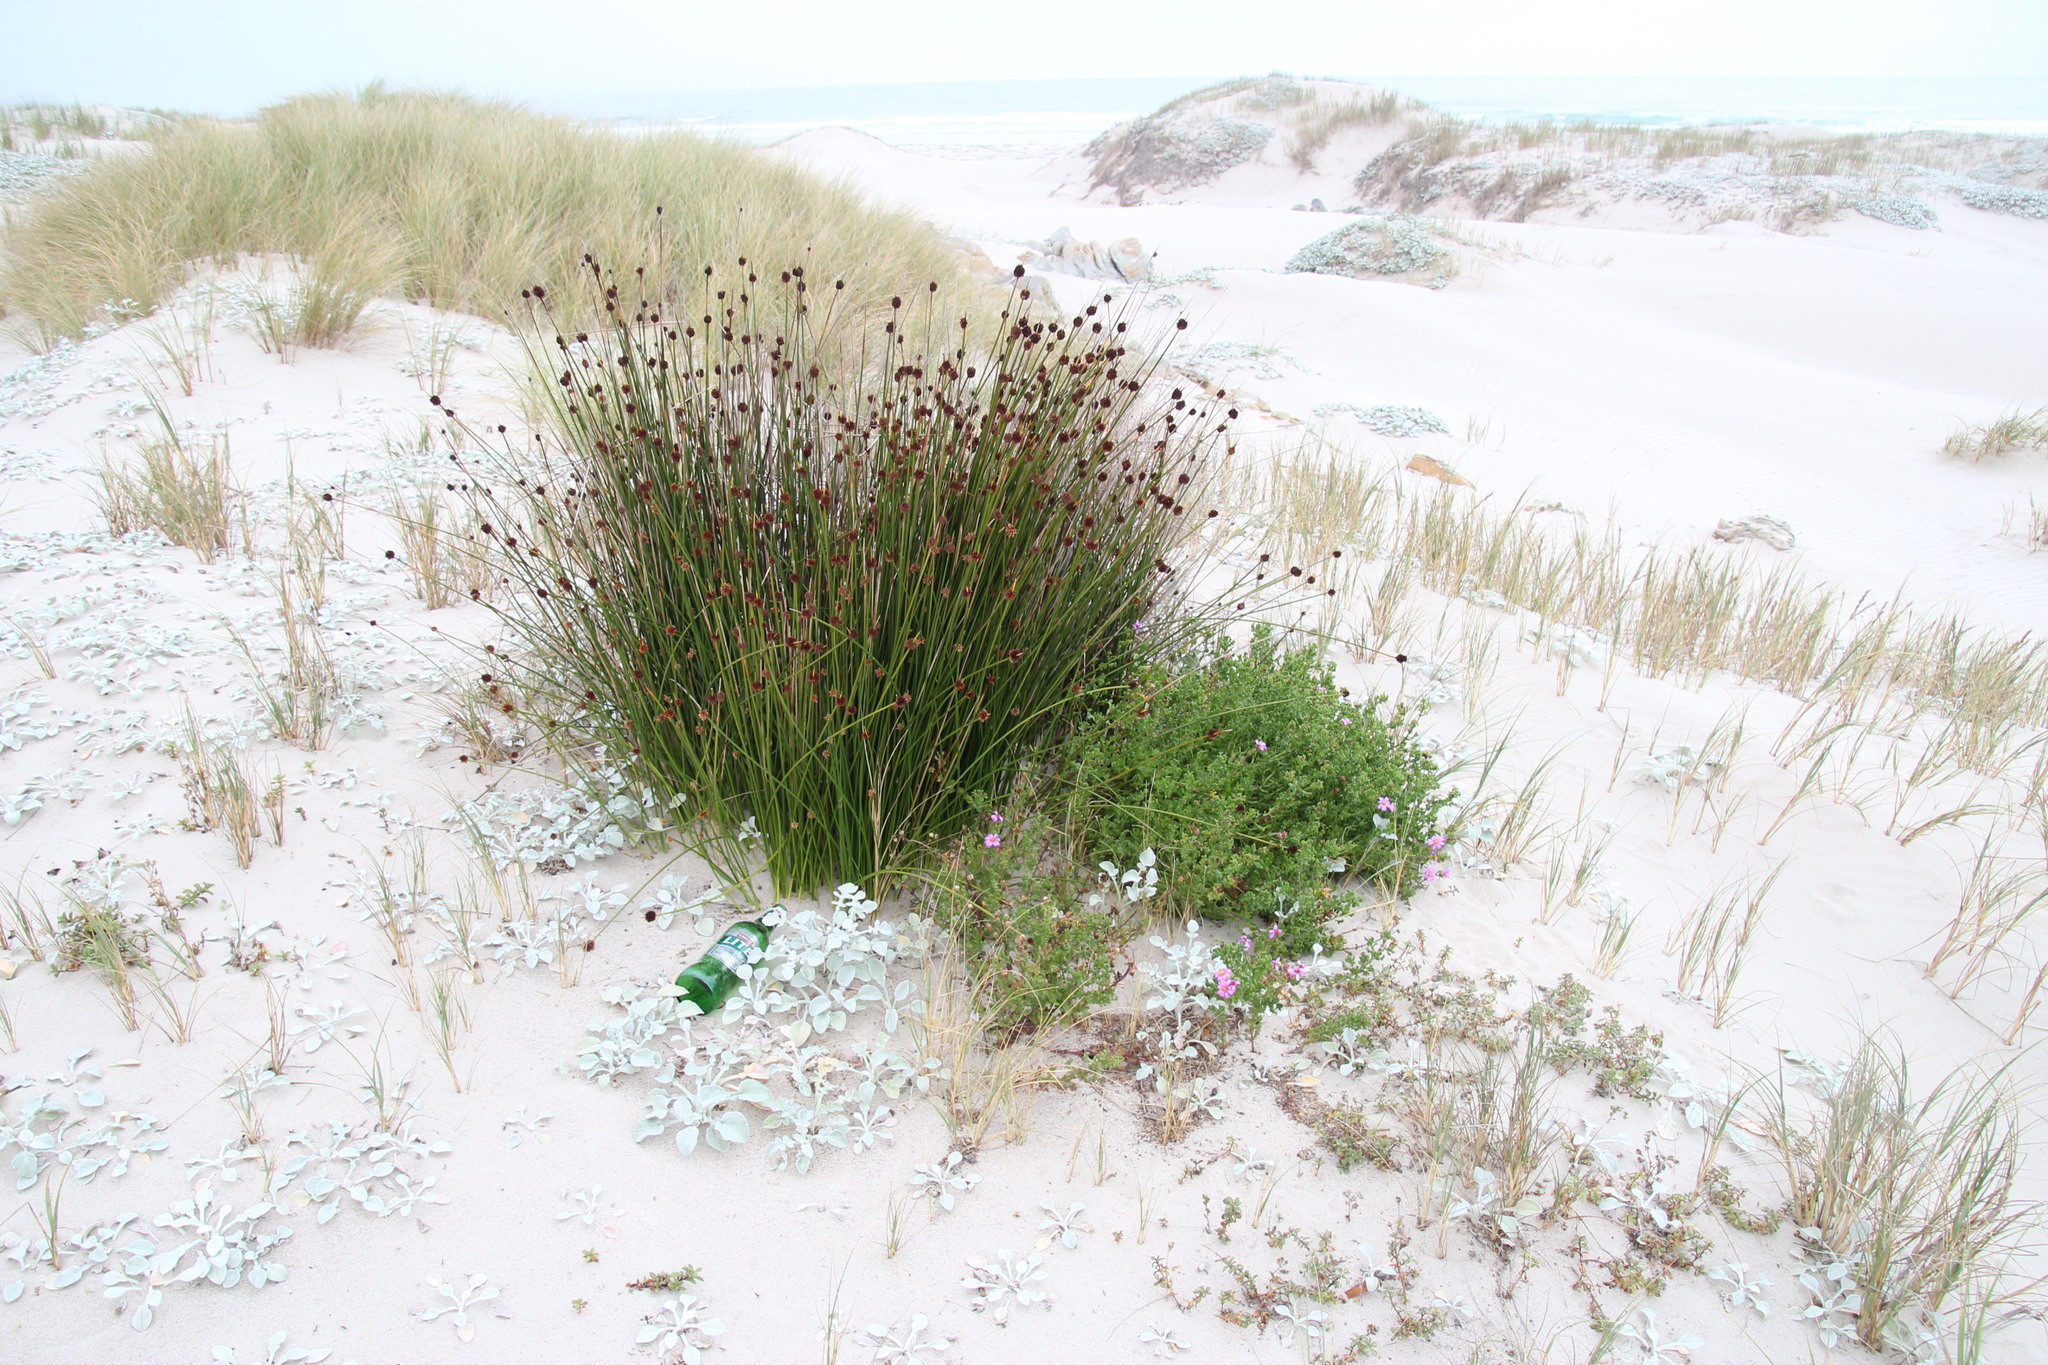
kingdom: Plantae
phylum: Tracheophyta
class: Liliopsida
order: Poales
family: Cyperaceae
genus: Ficinia
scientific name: Ficinia nodosa
